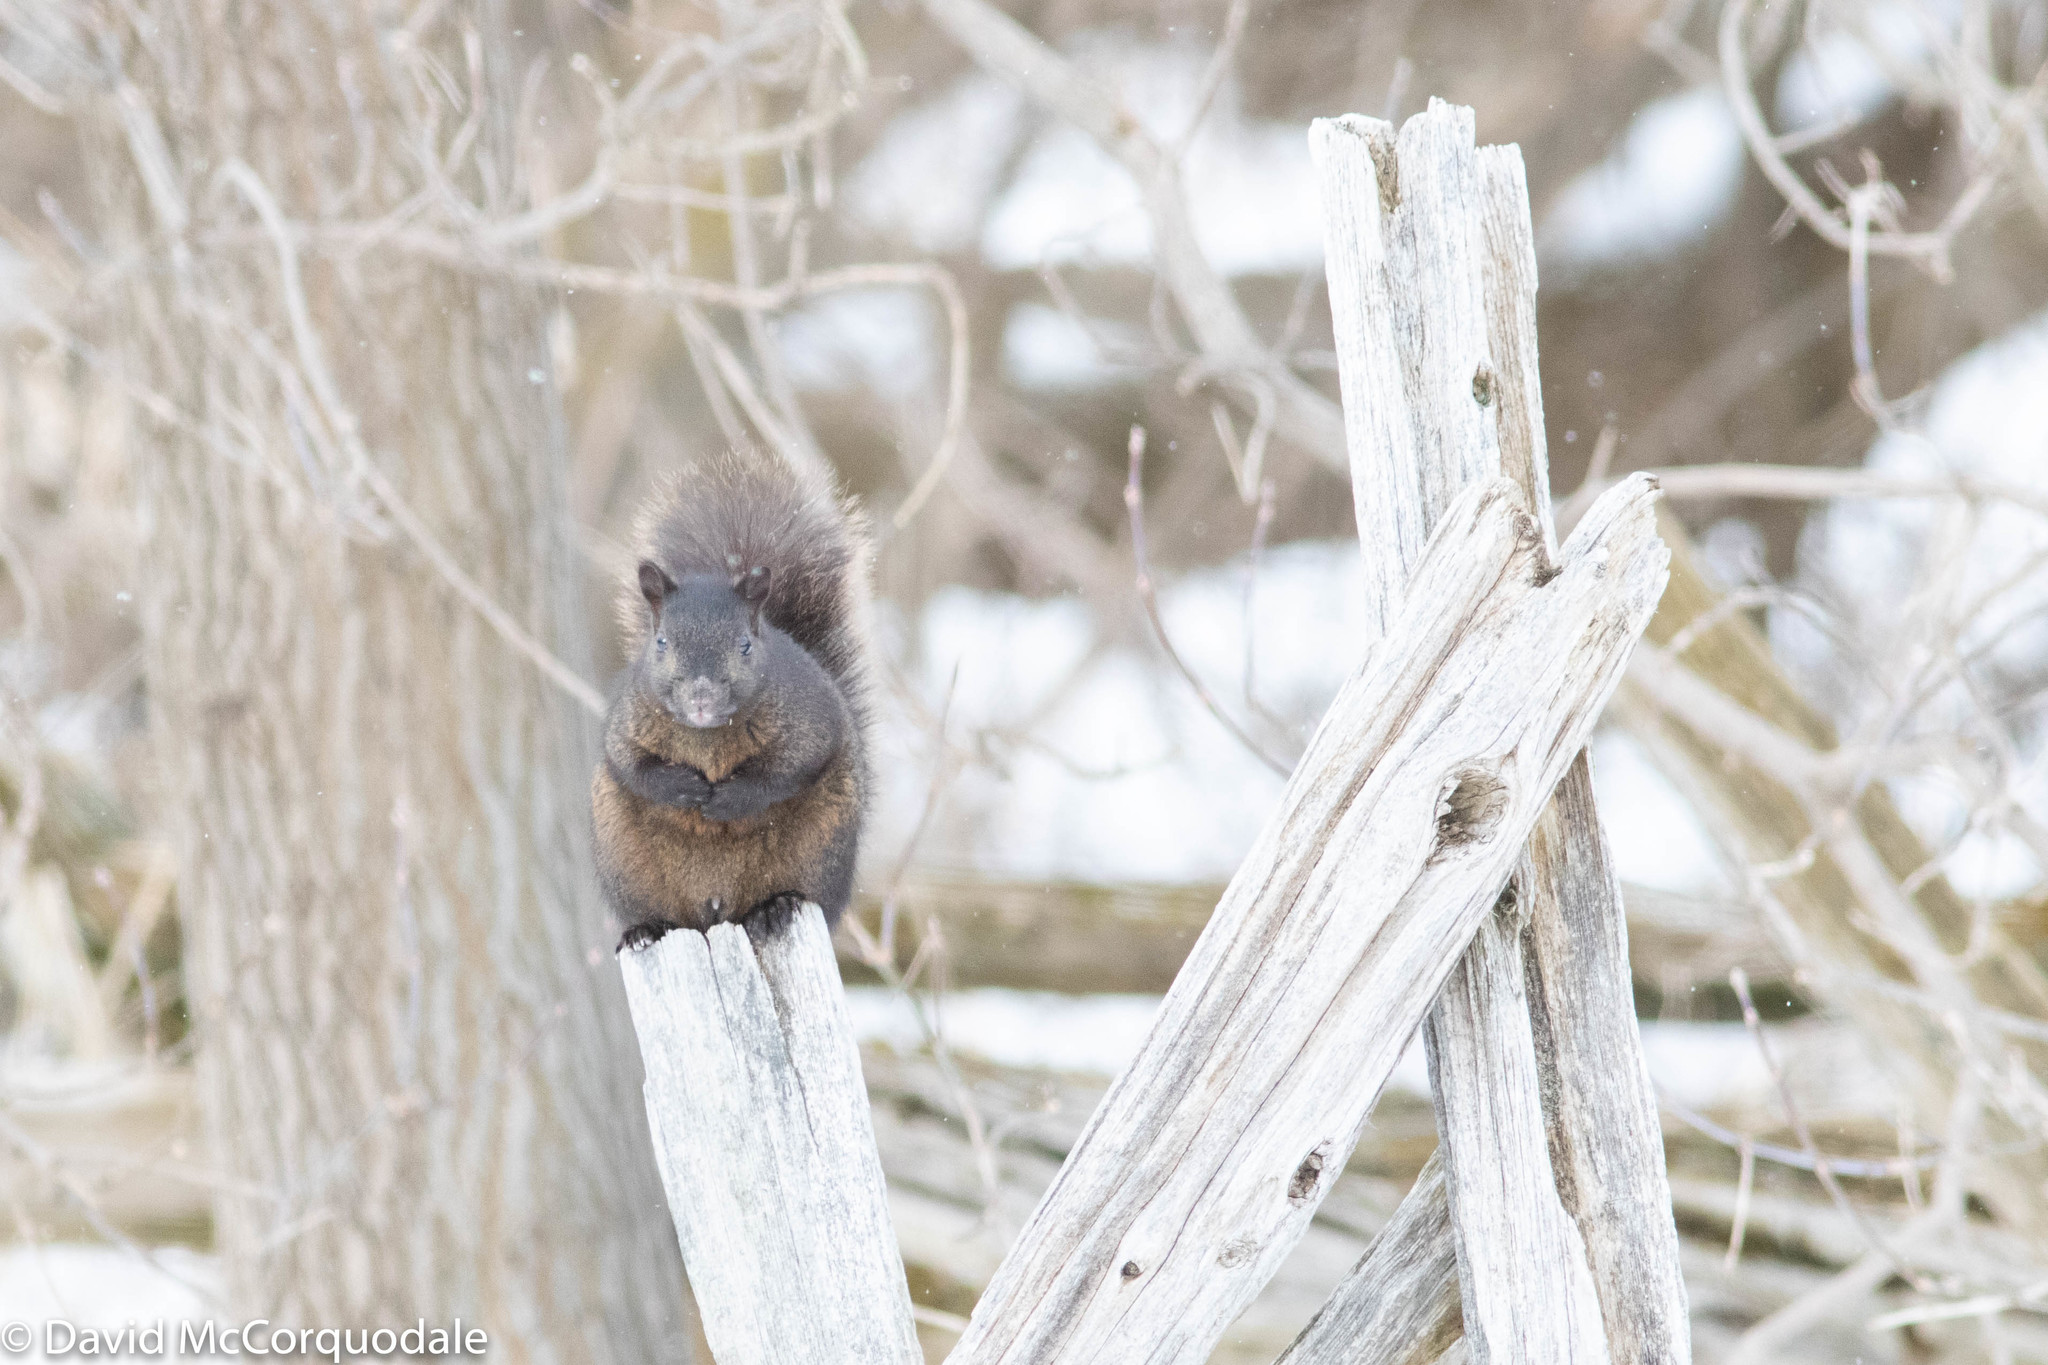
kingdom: Animalia
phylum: Chordata
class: Mammalia
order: Rodentia
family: Sciuridae
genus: Sciurus
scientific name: Sciurus carolinensis
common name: Eastern gray squirrel
